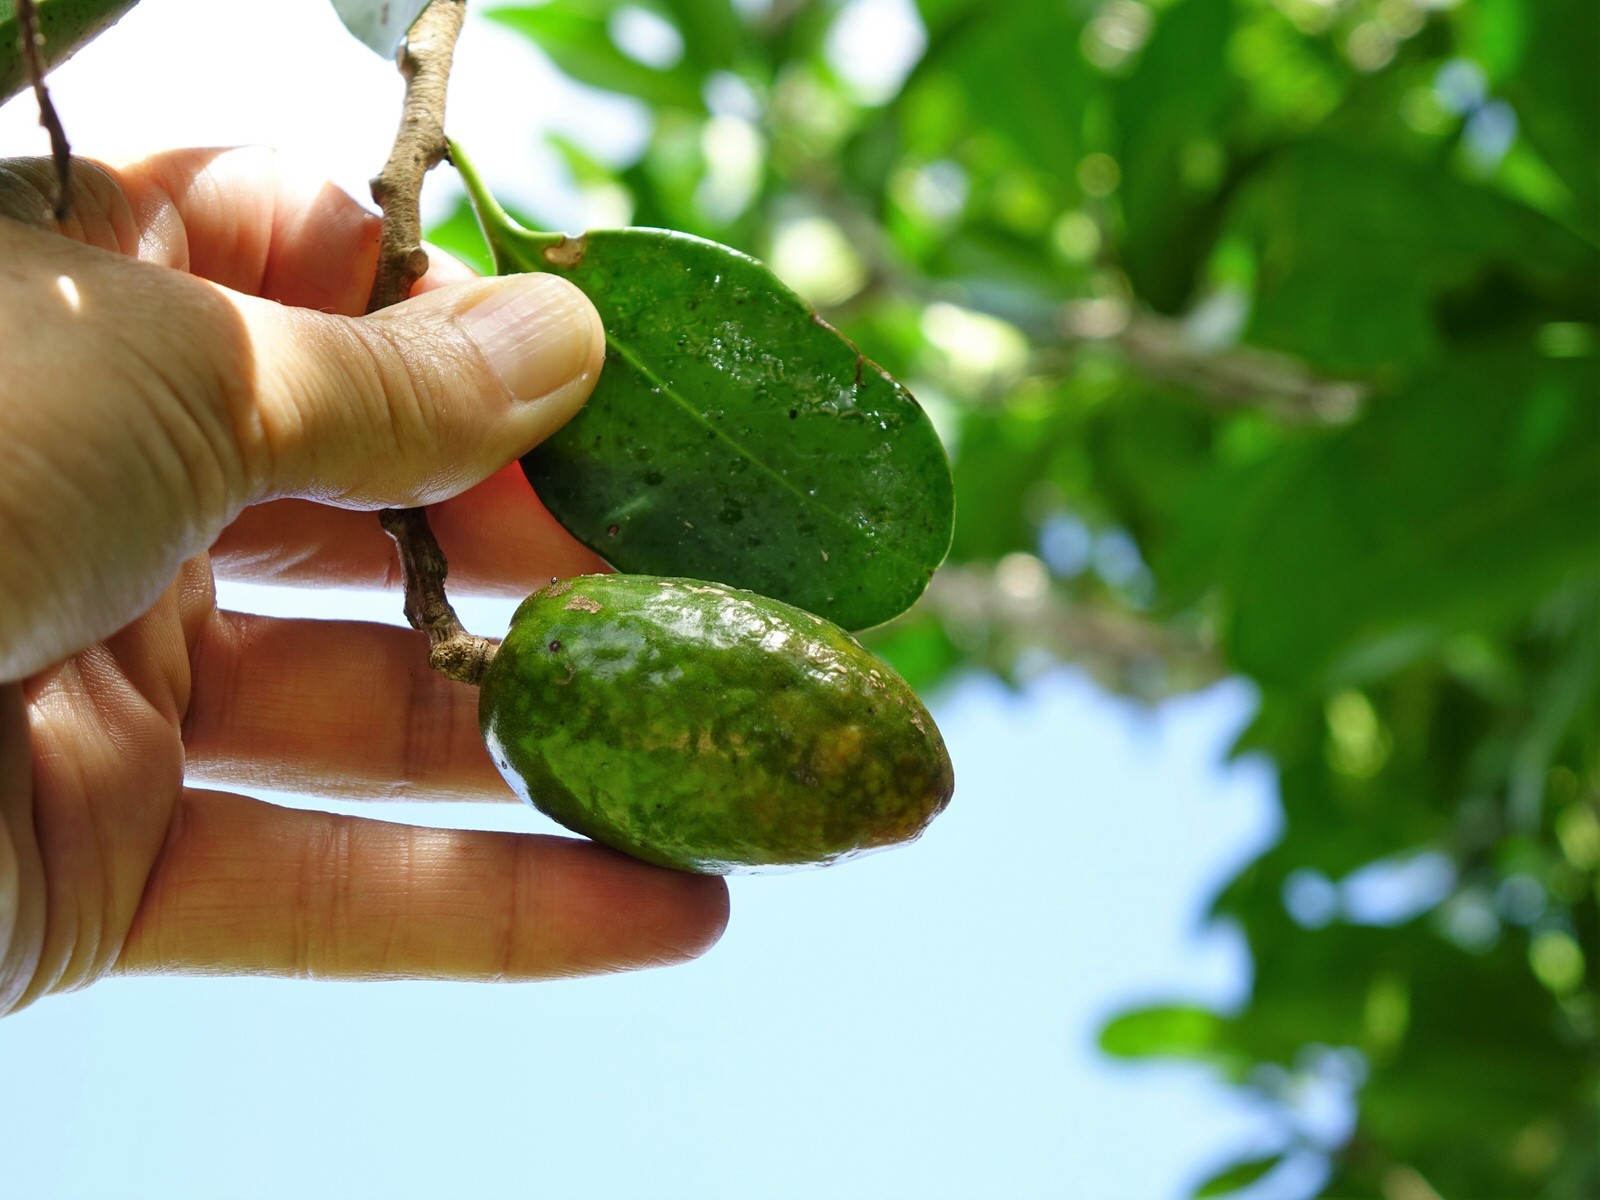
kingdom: Plantae
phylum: Tracheophyta
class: Magnoliopsida
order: Cucurbitales
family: Corynocarpaceae
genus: Corynocarpus
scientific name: Corynocarpus laevigatus
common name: New zealand laurel
